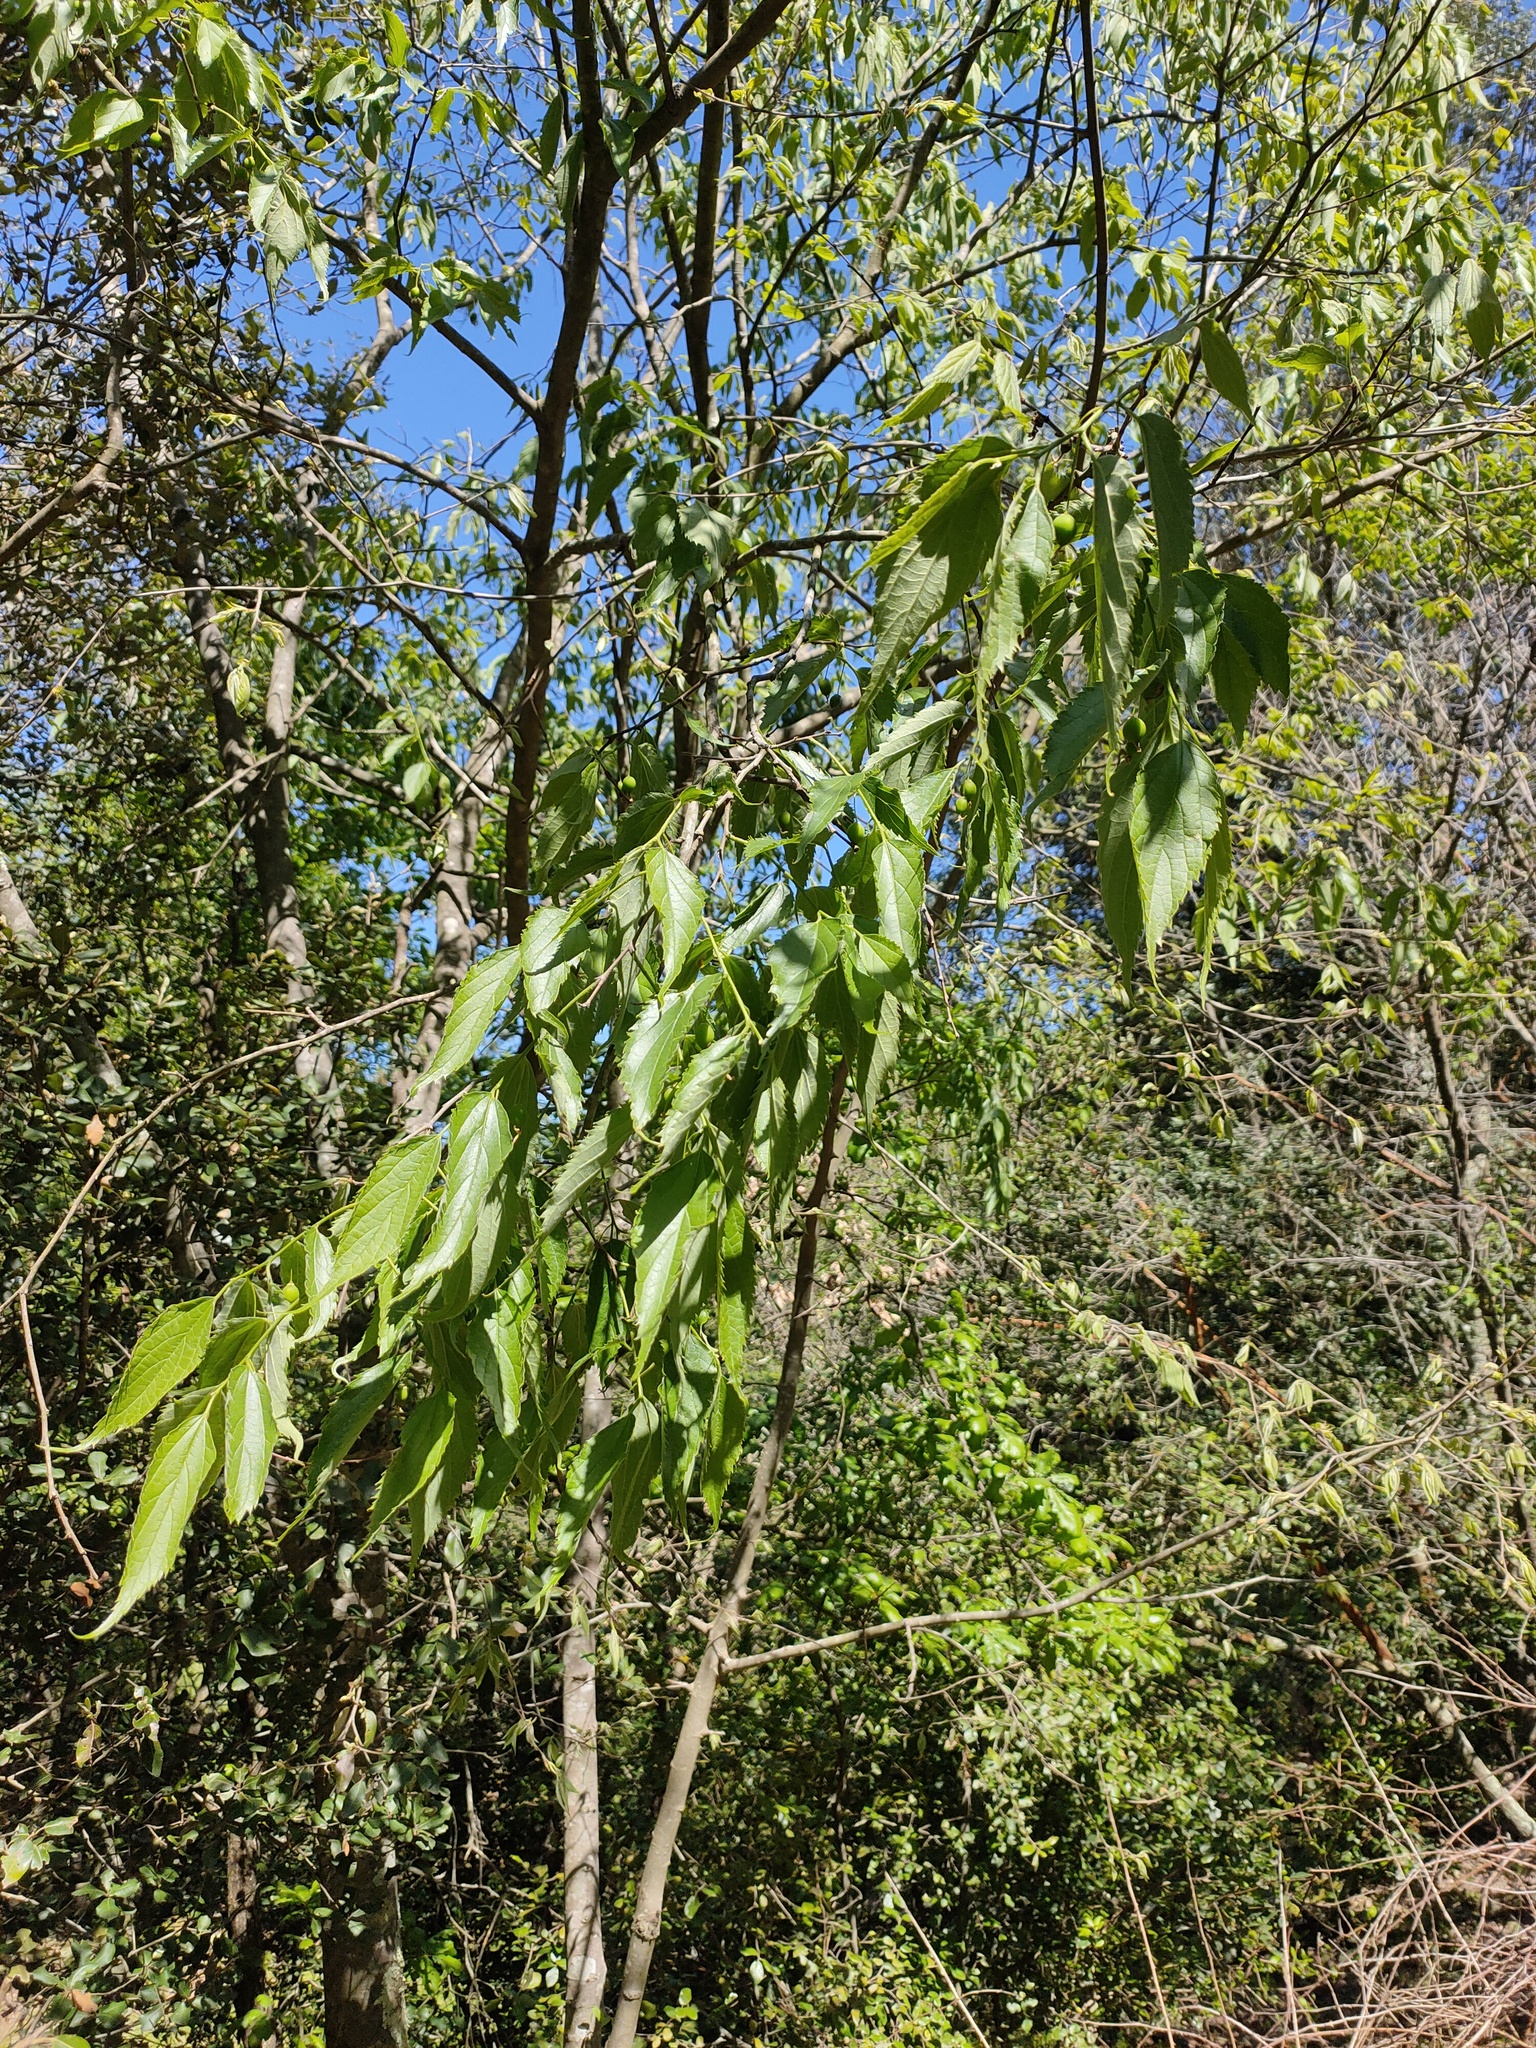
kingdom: Plantae
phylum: Tracheophyta
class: Magnoliopsida
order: Rosales
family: Cannabaceae
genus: Celtis
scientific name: Celtis australis
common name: European hackberry
